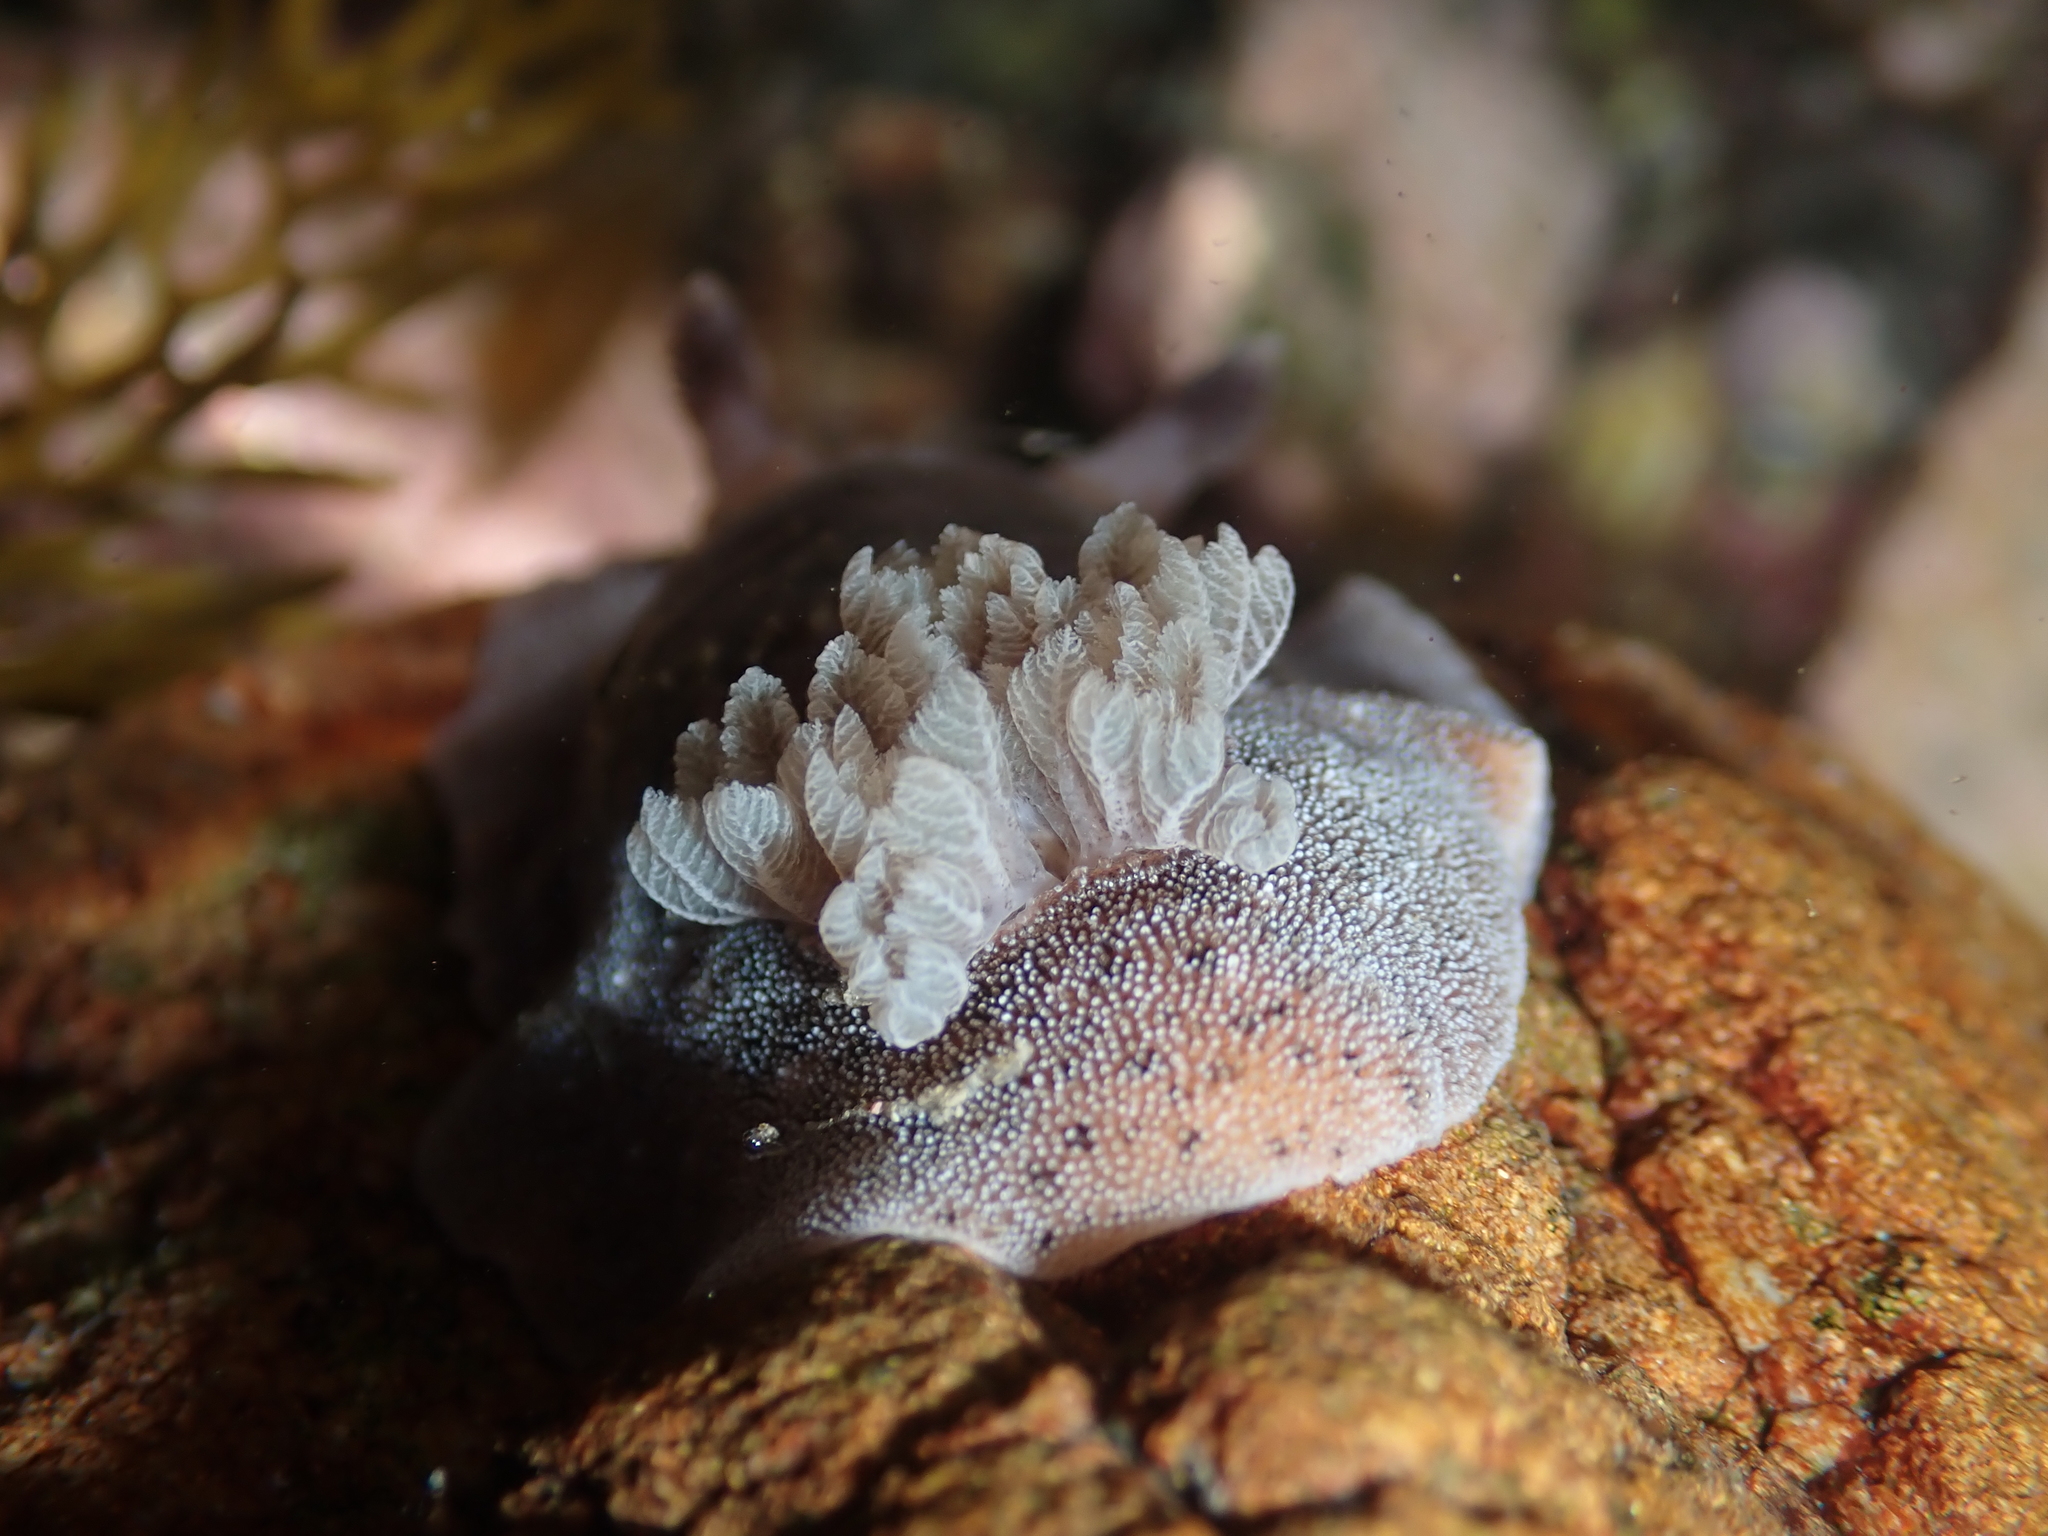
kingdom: Animalia
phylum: Mollusca
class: Gastropoda
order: Nudibranchia
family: Discodorididae
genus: Alloiodoris
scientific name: Alloiodoris lanuginata
